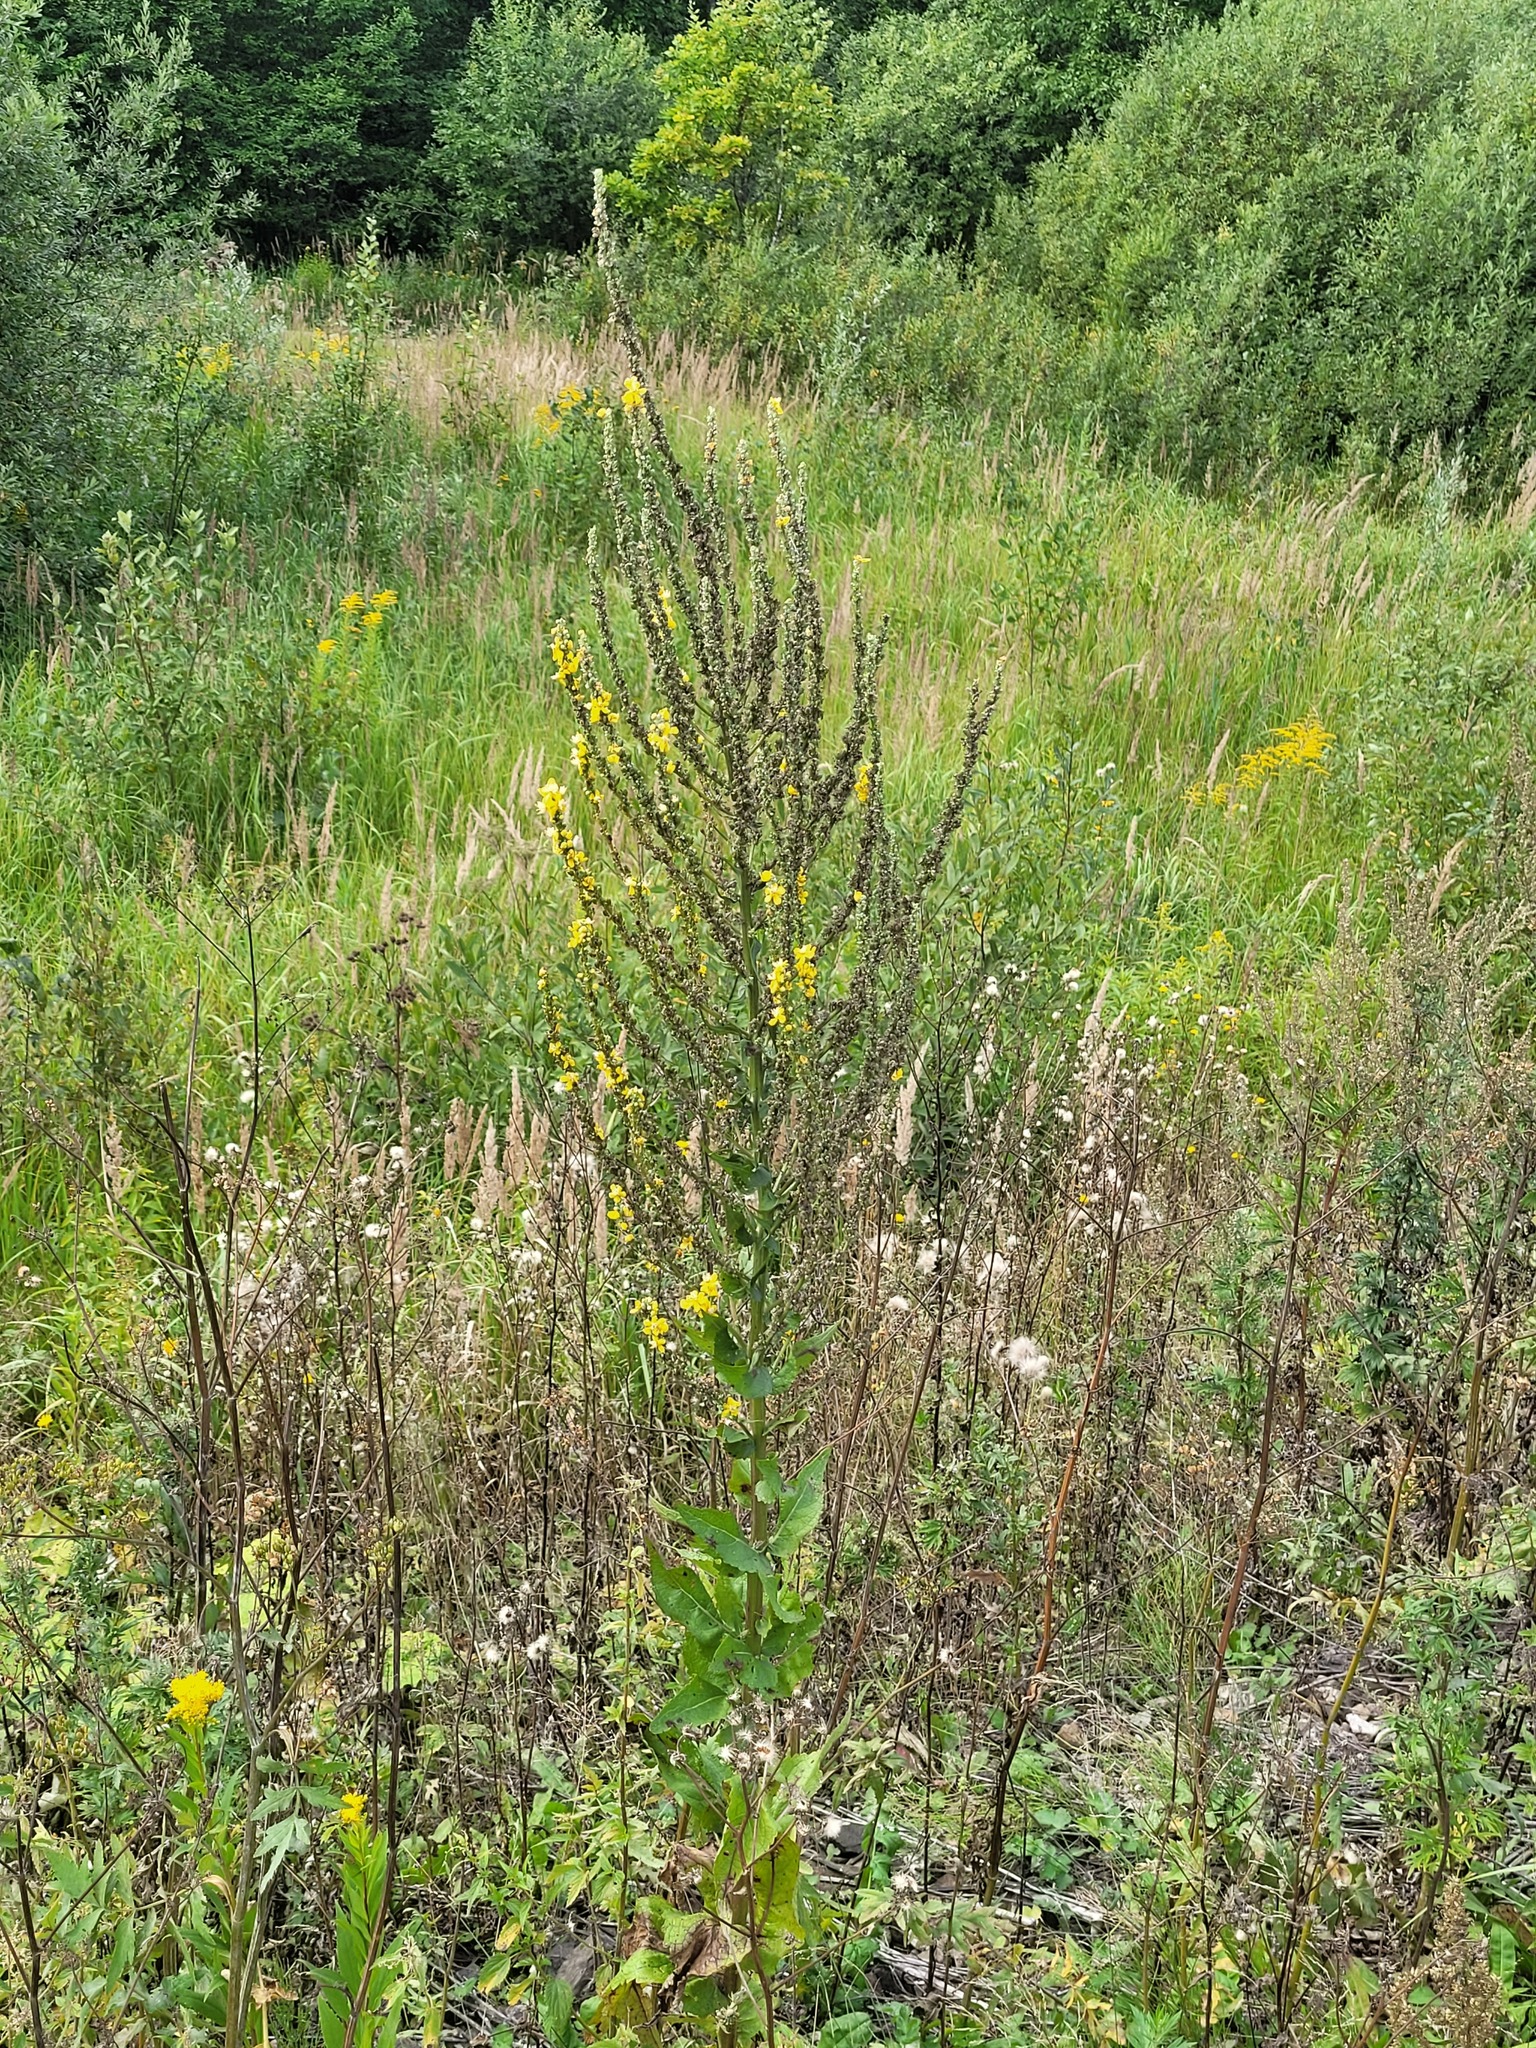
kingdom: Plantae
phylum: Tracheophyta
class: Magnoliopsida
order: Lamiales
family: Scrophulariaceae
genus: Verbascum
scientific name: Verbascum lychnitis
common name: White mullein
